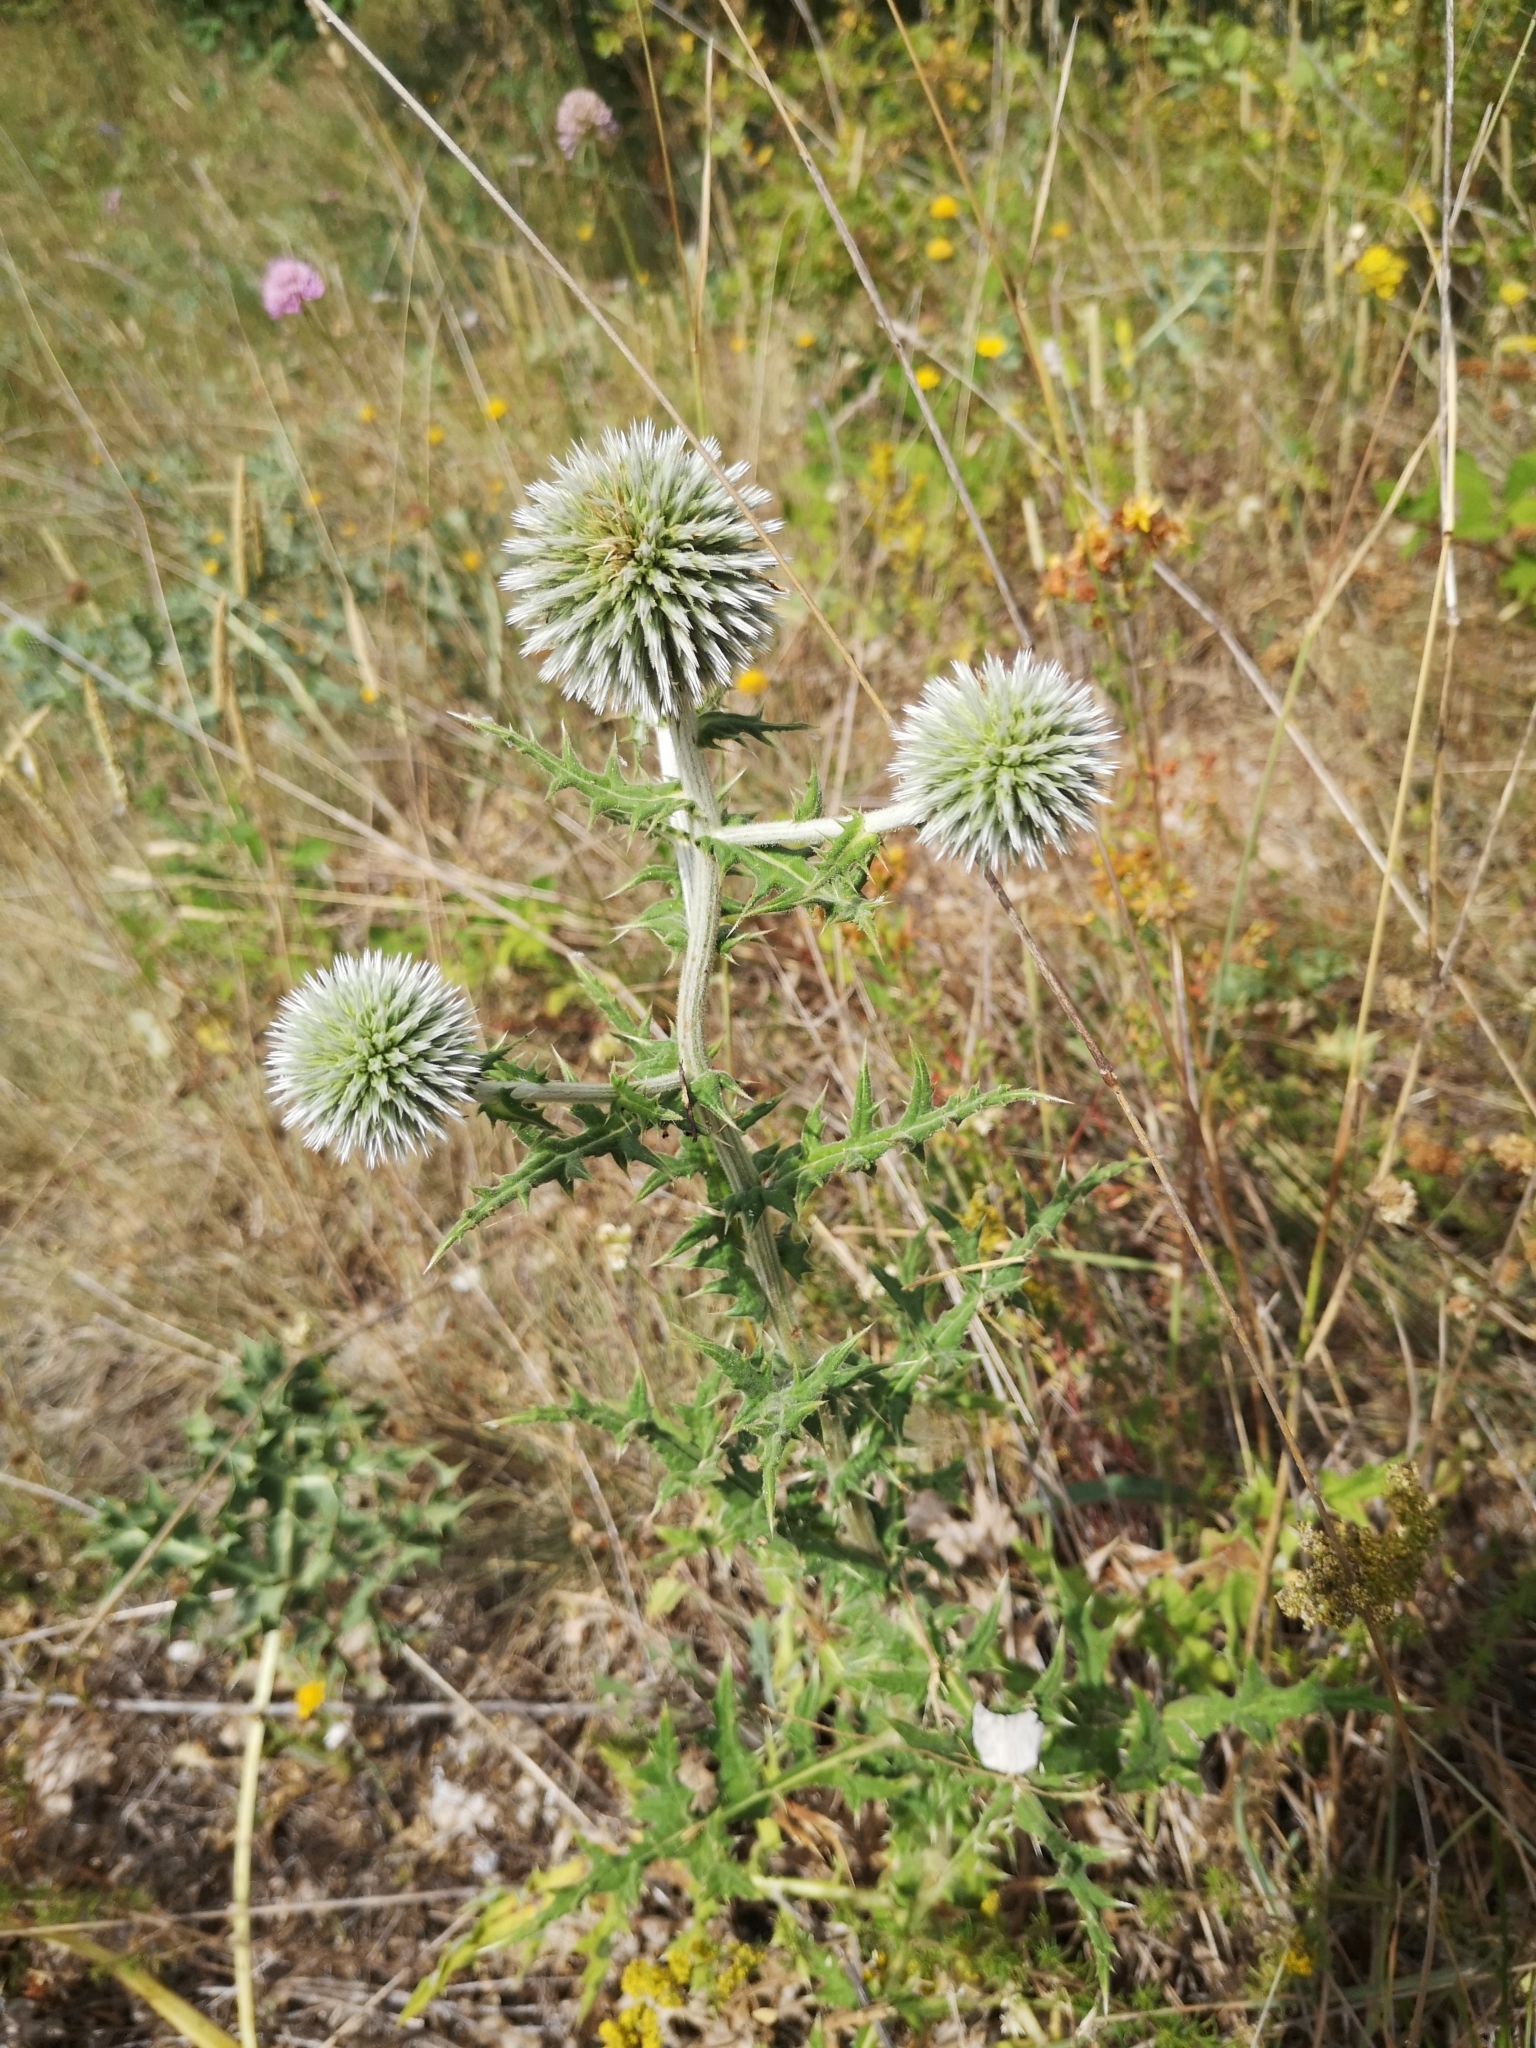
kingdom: Plantae
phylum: Tracheophyta
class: Magnoliopsida
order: Asterales
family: Asteraceae
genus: Echinops
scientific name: Echinops sphaerocephalus
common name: Glandular globe-thistle
